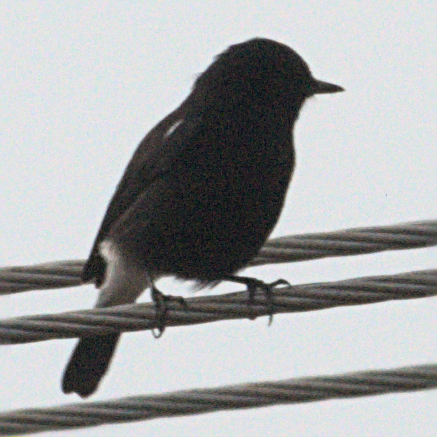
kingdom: Animalia
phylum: Chordata
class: Aves
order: Passeriformes
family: Muscicapidae
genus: Saxicola
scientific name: Saxicola caprata
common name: Pied bush chat
